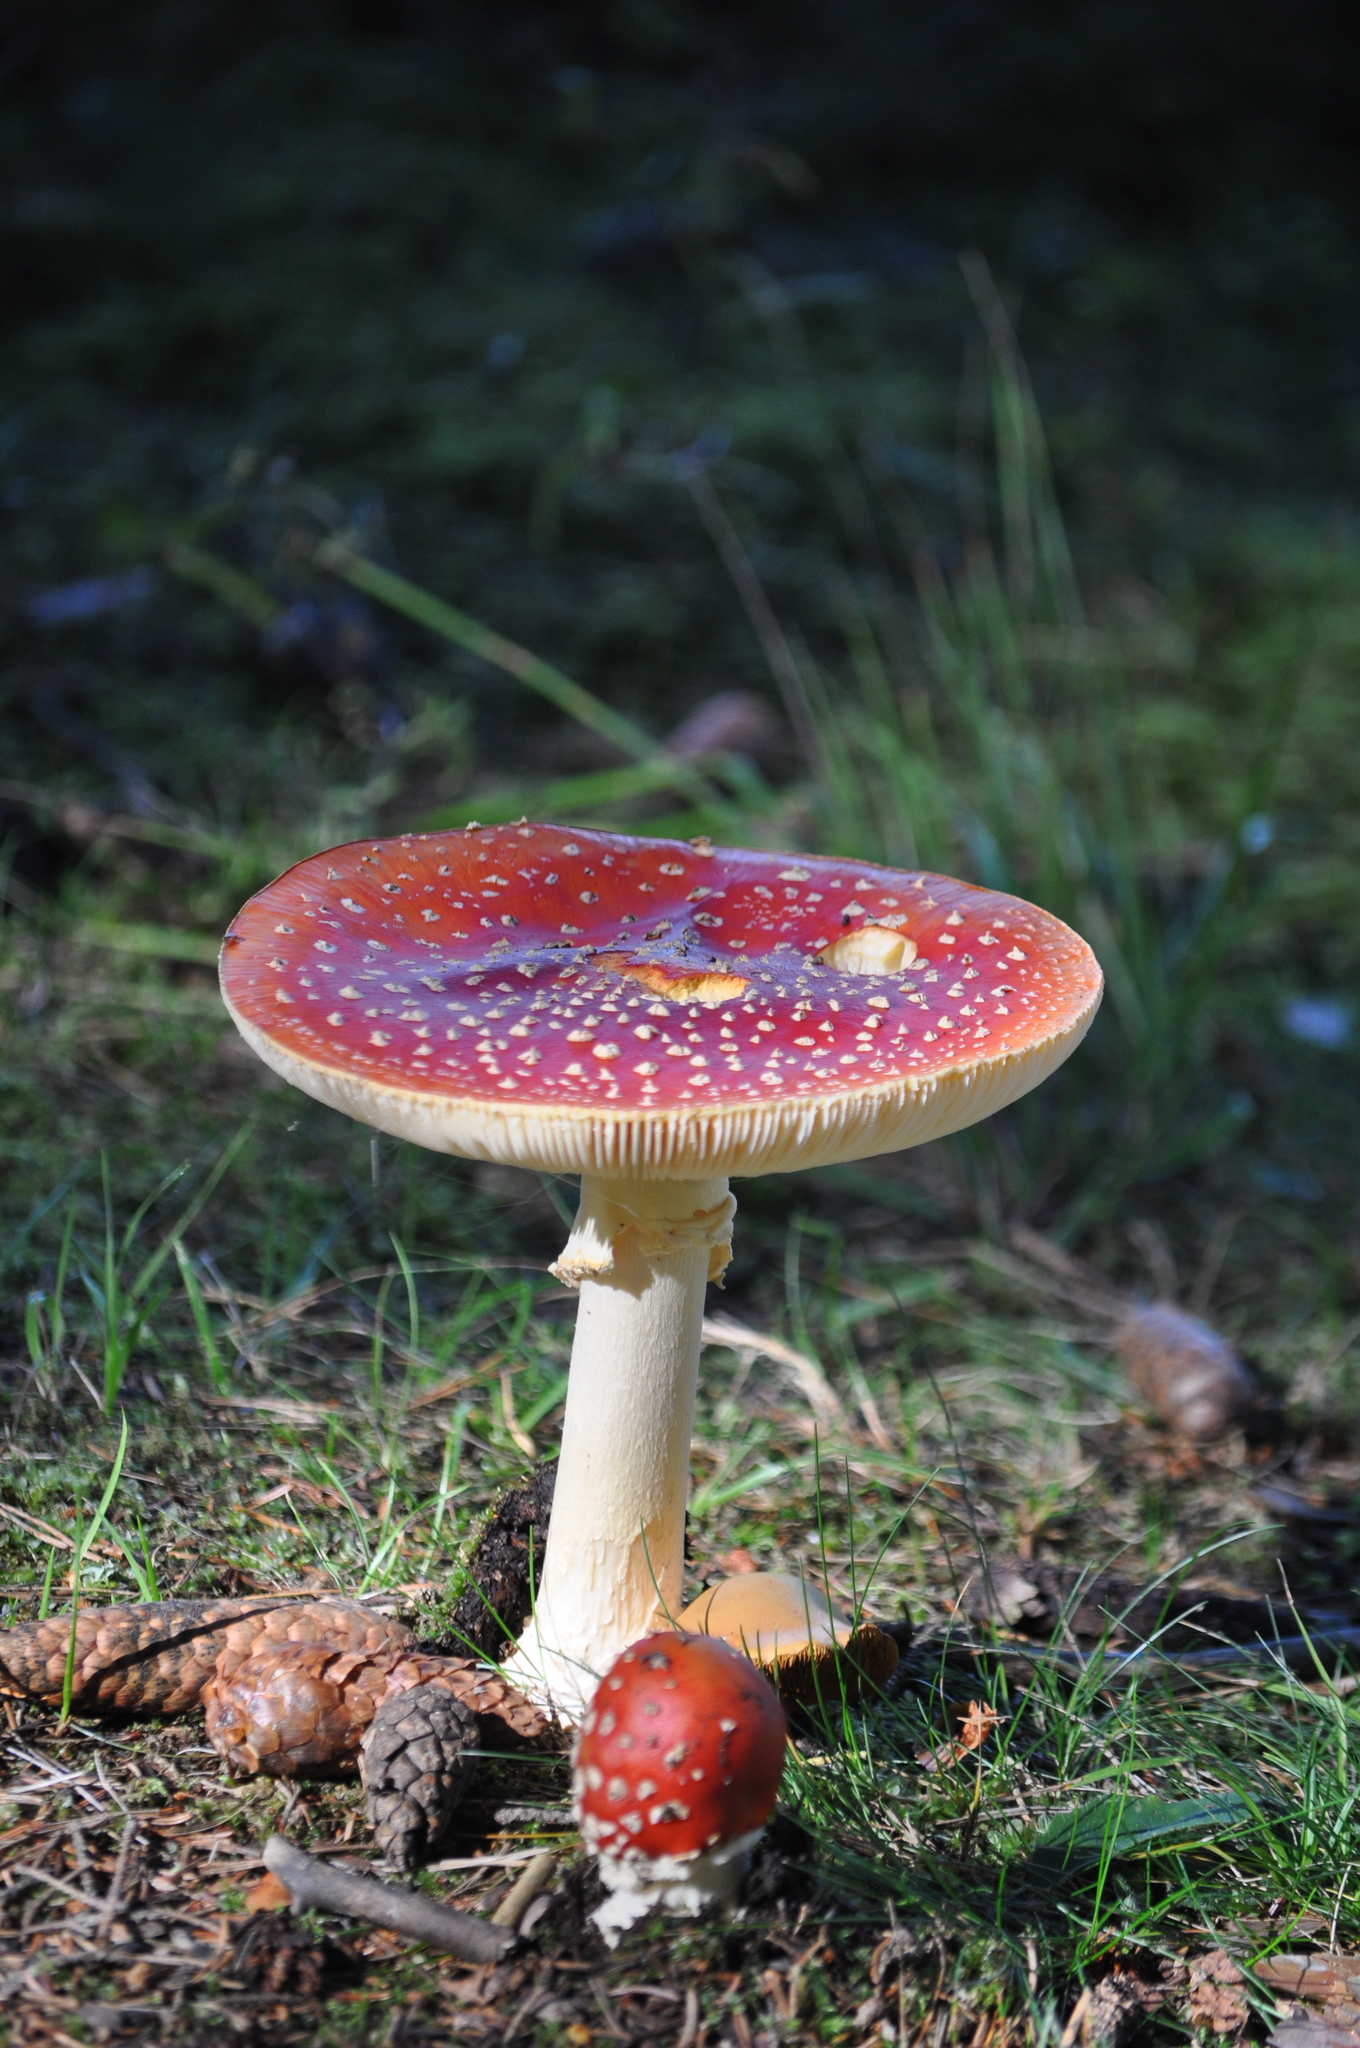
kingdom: Fungi
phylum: Basidiomycota
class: Agaricomycetes
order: Agaricales
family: Amanitaceae
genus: Amanita
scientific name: Amanita muscaria
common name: Fly agaric
